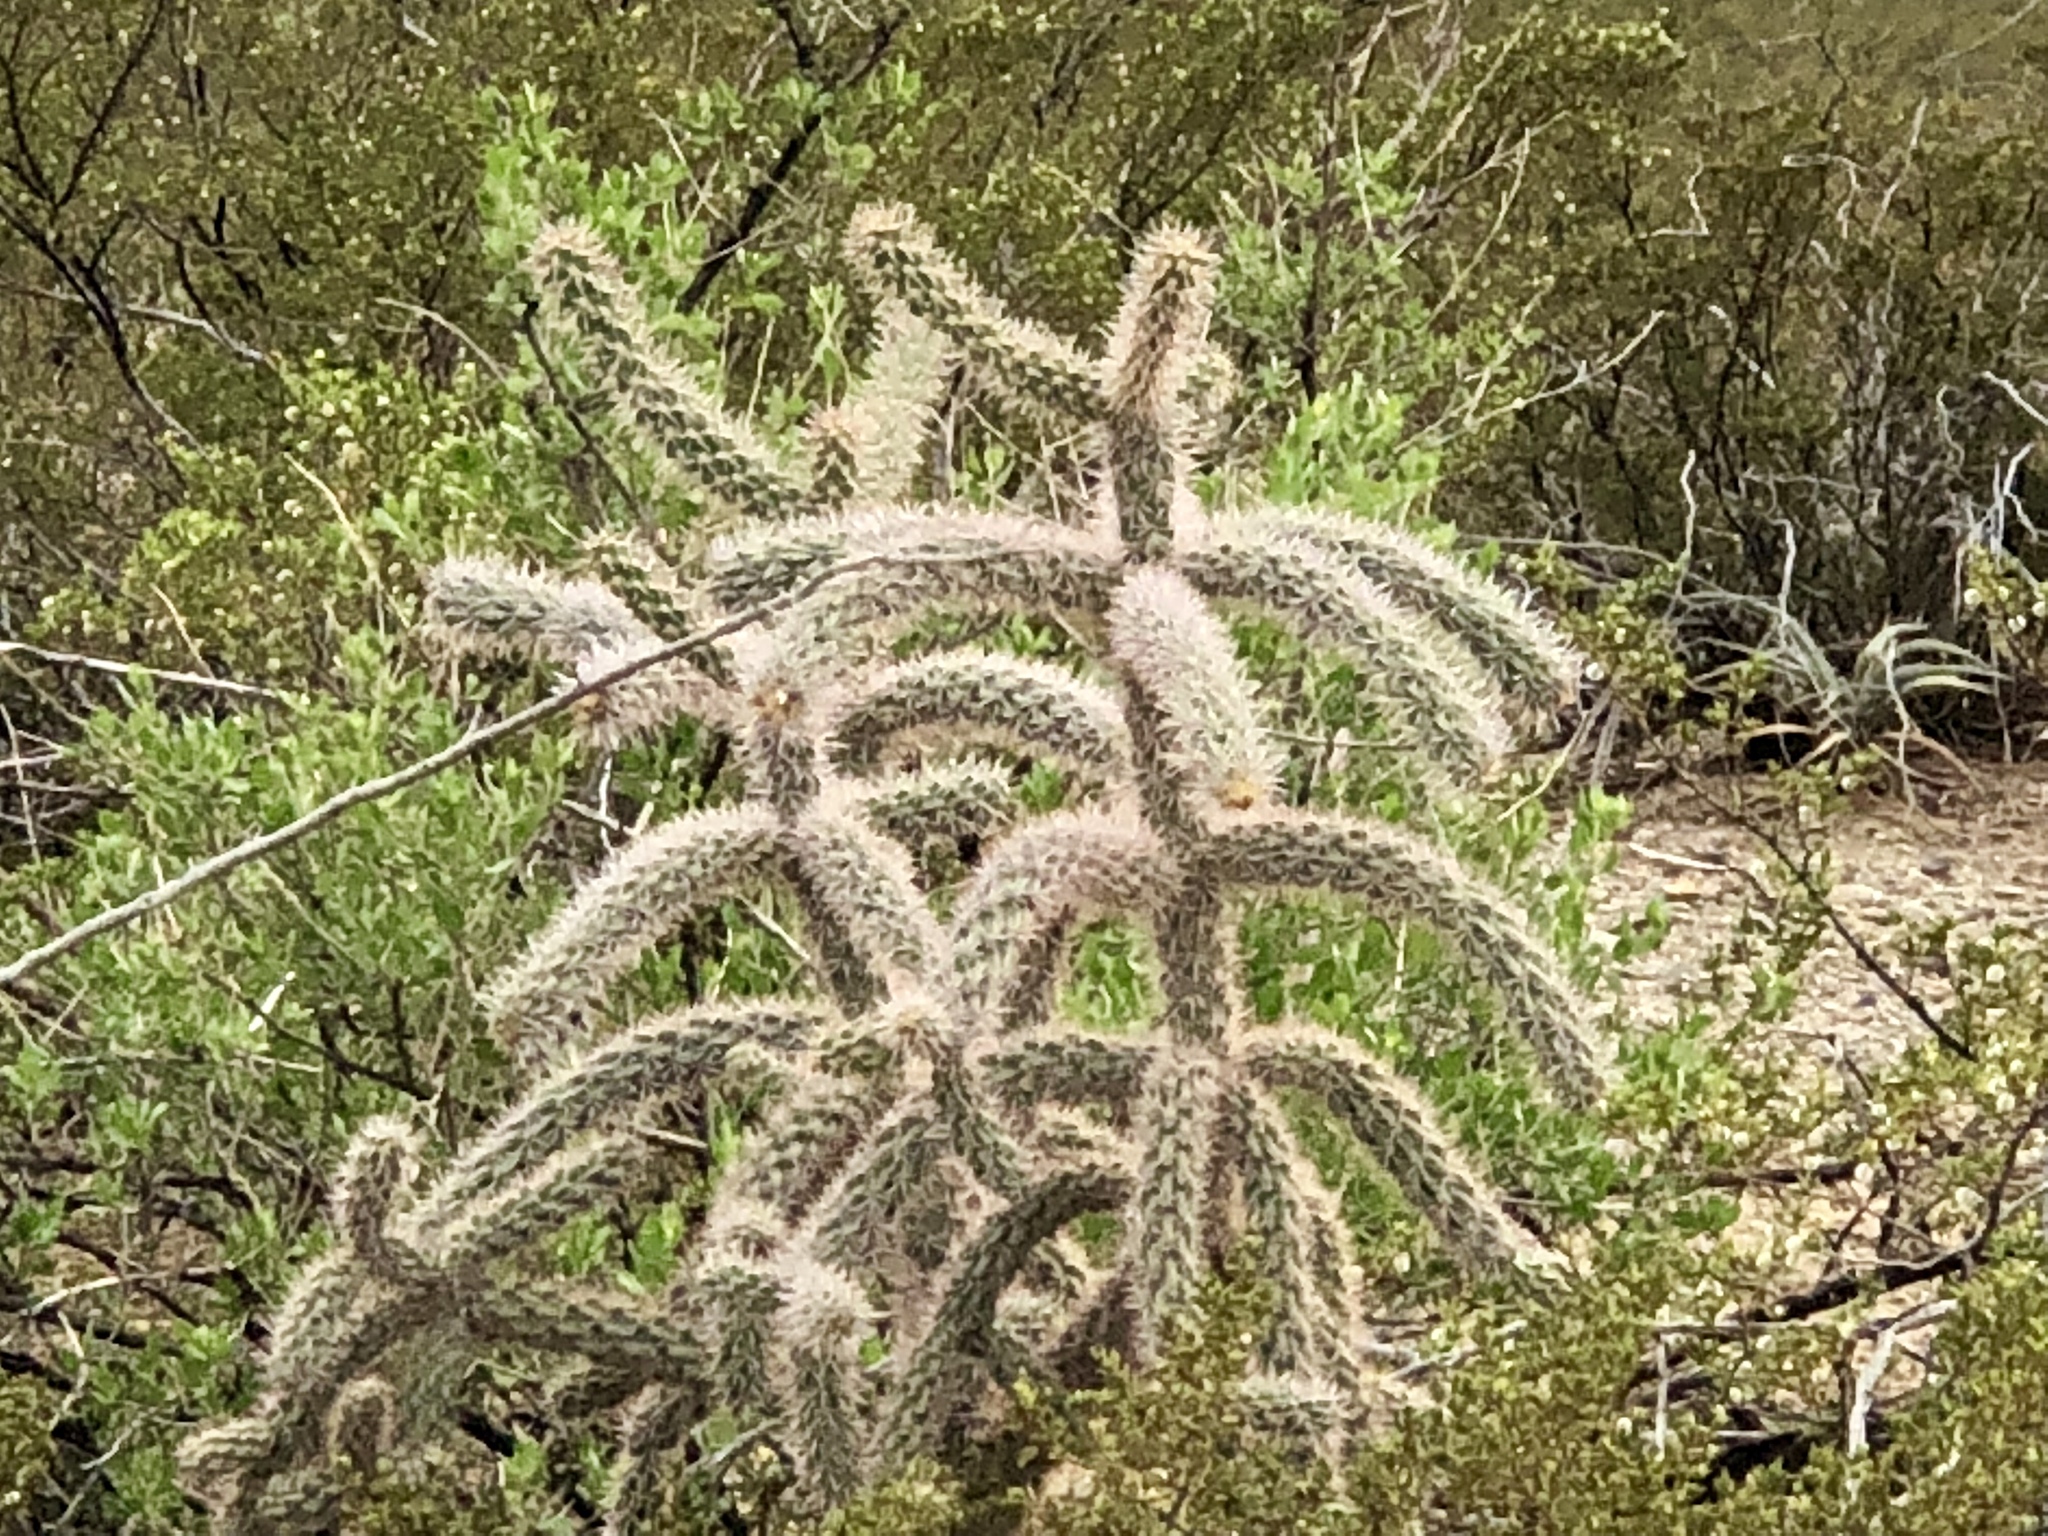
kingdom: Plantae
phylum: Tracheophyta
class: Magnoliopsida
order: Caryophyllales
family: Cactaceae
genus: Cylindropuntia
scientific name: Cylindropuntia imbricata
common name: Candelabrum cactus
